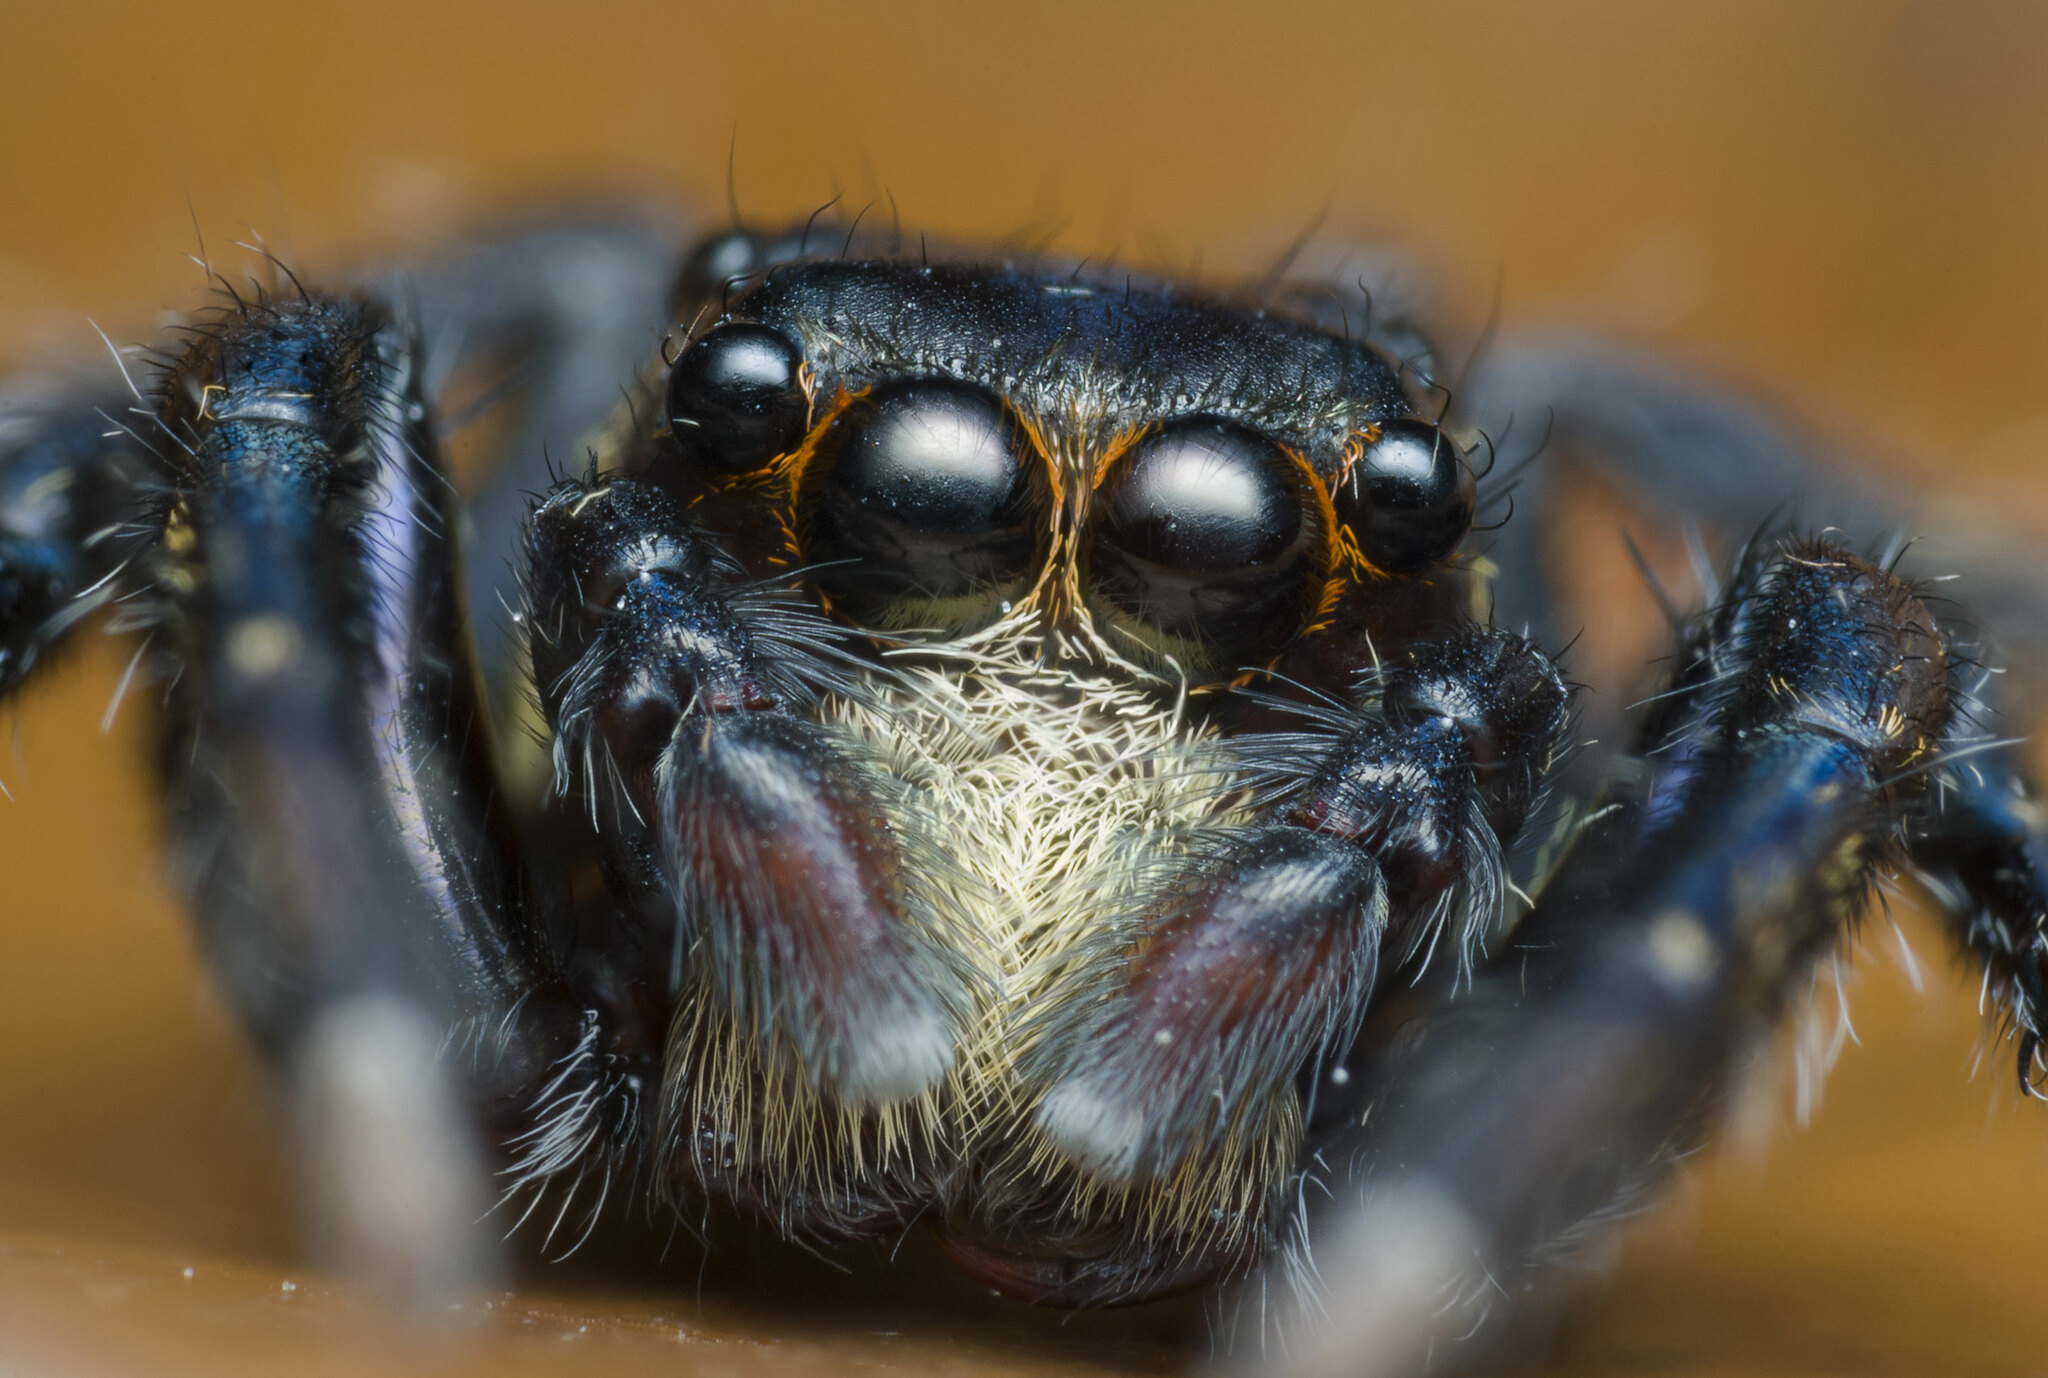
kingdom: Animalia
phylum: Arthropoda
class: Arachnida
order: Araneae
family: Salticidae
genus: Triggella
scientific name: Triggella infuscata
